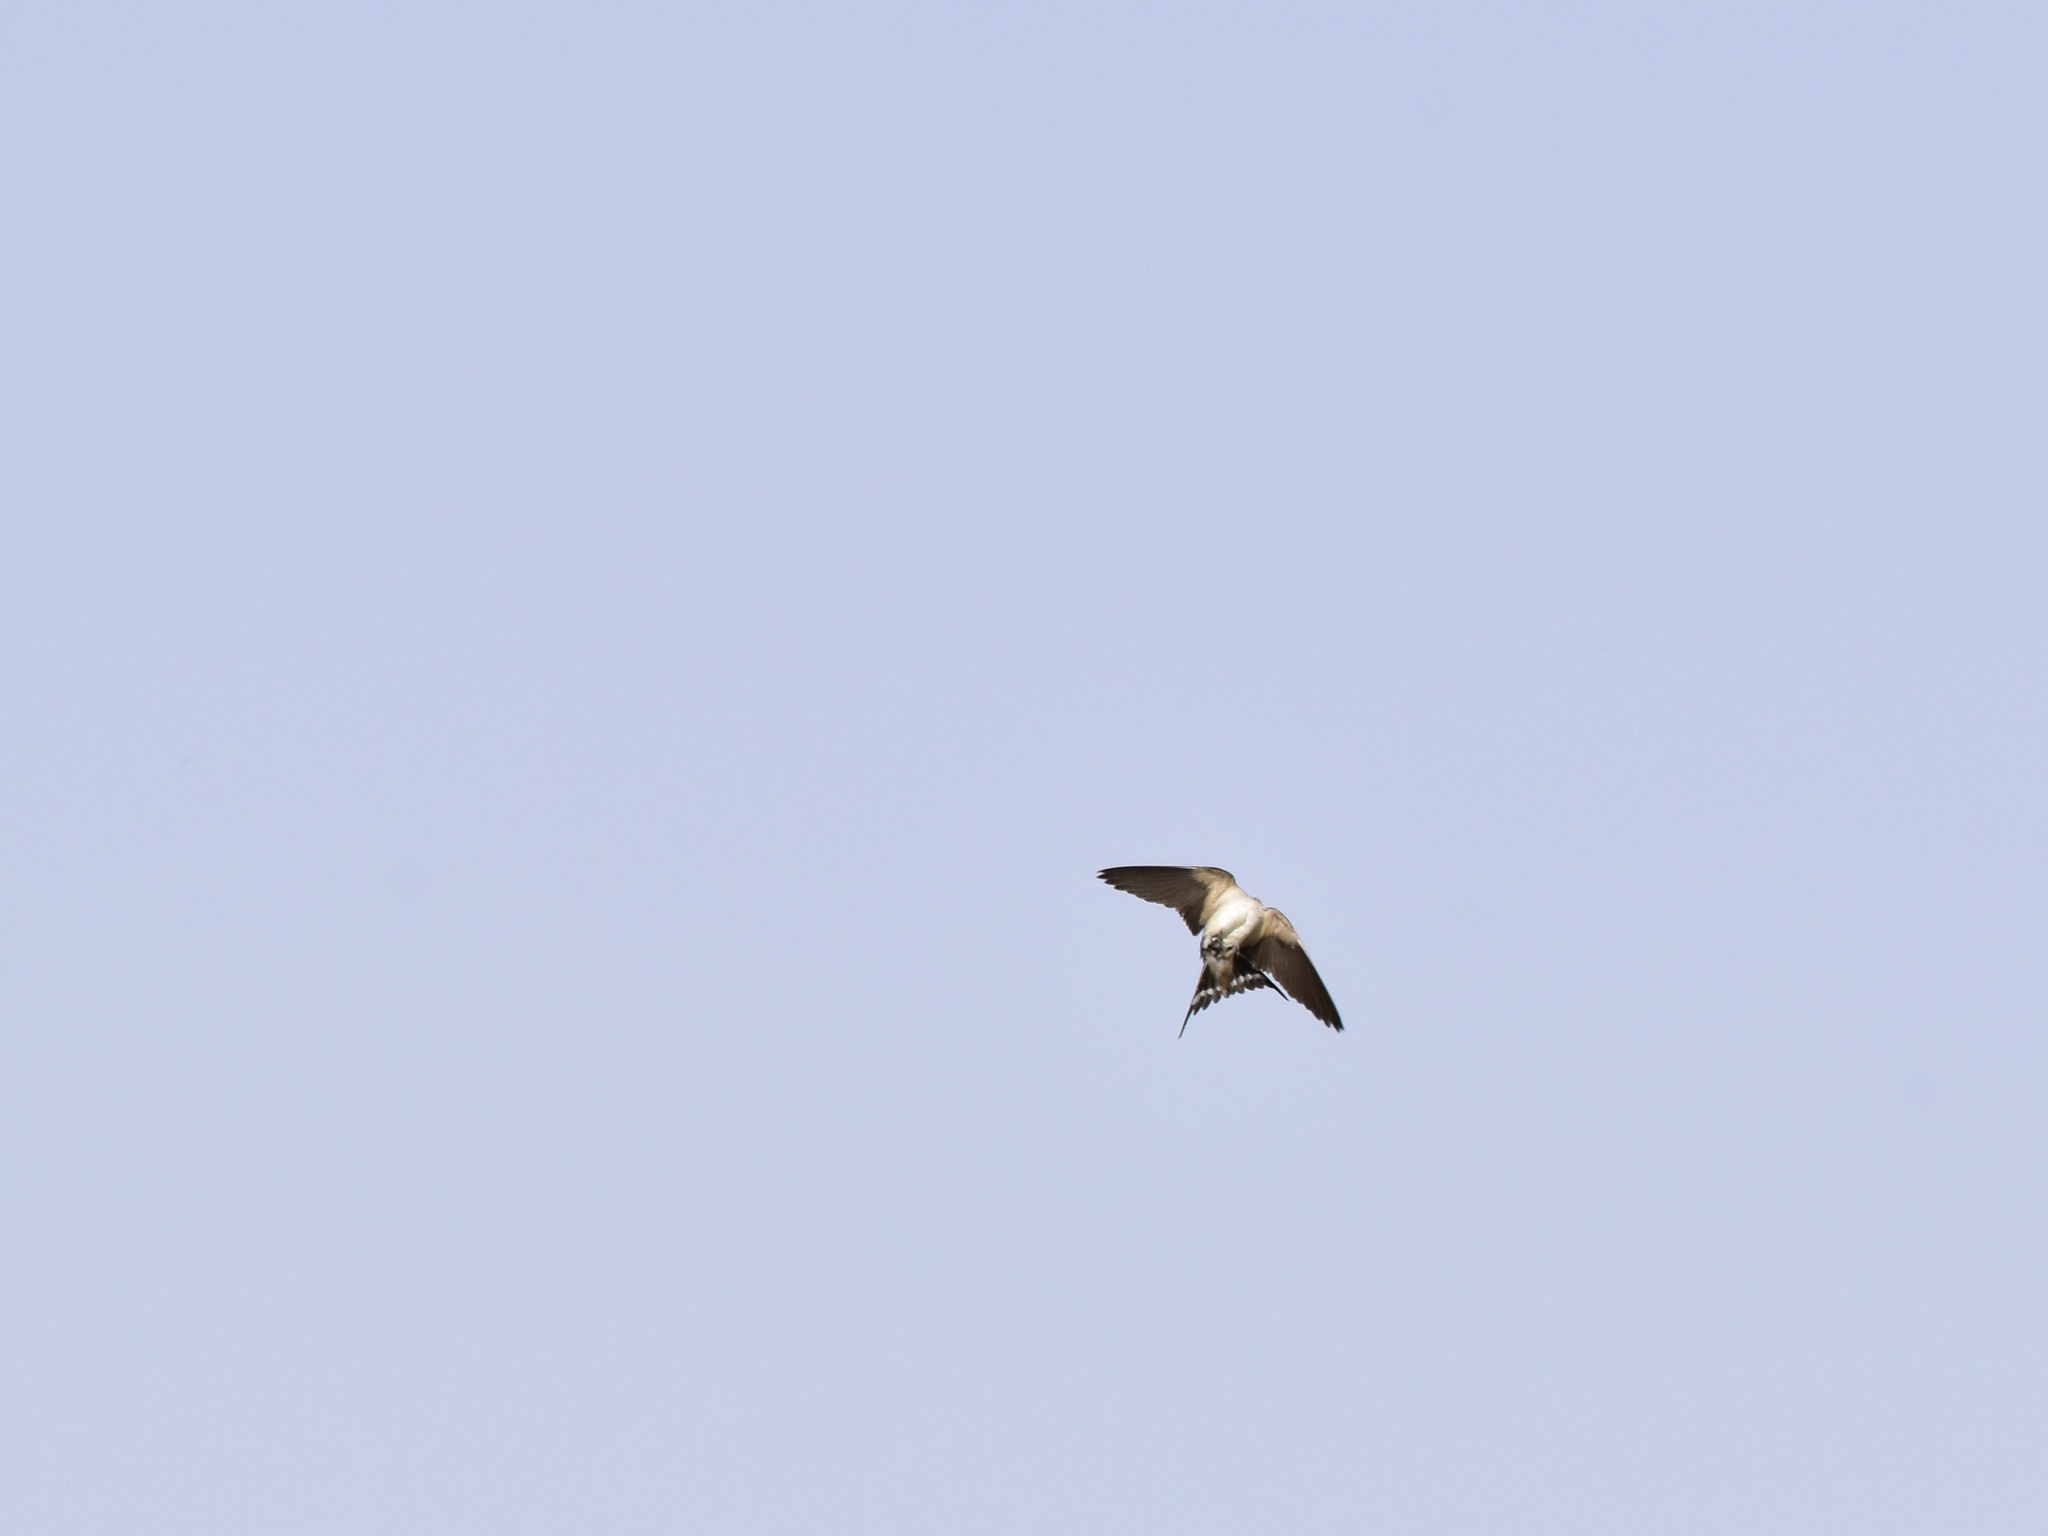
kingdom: Animalia
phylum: Chordata
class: Aves
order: Passeriformes
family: Hirundinidae
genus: Hirundo
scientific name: Hirundo rustica
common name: Barn swallow
